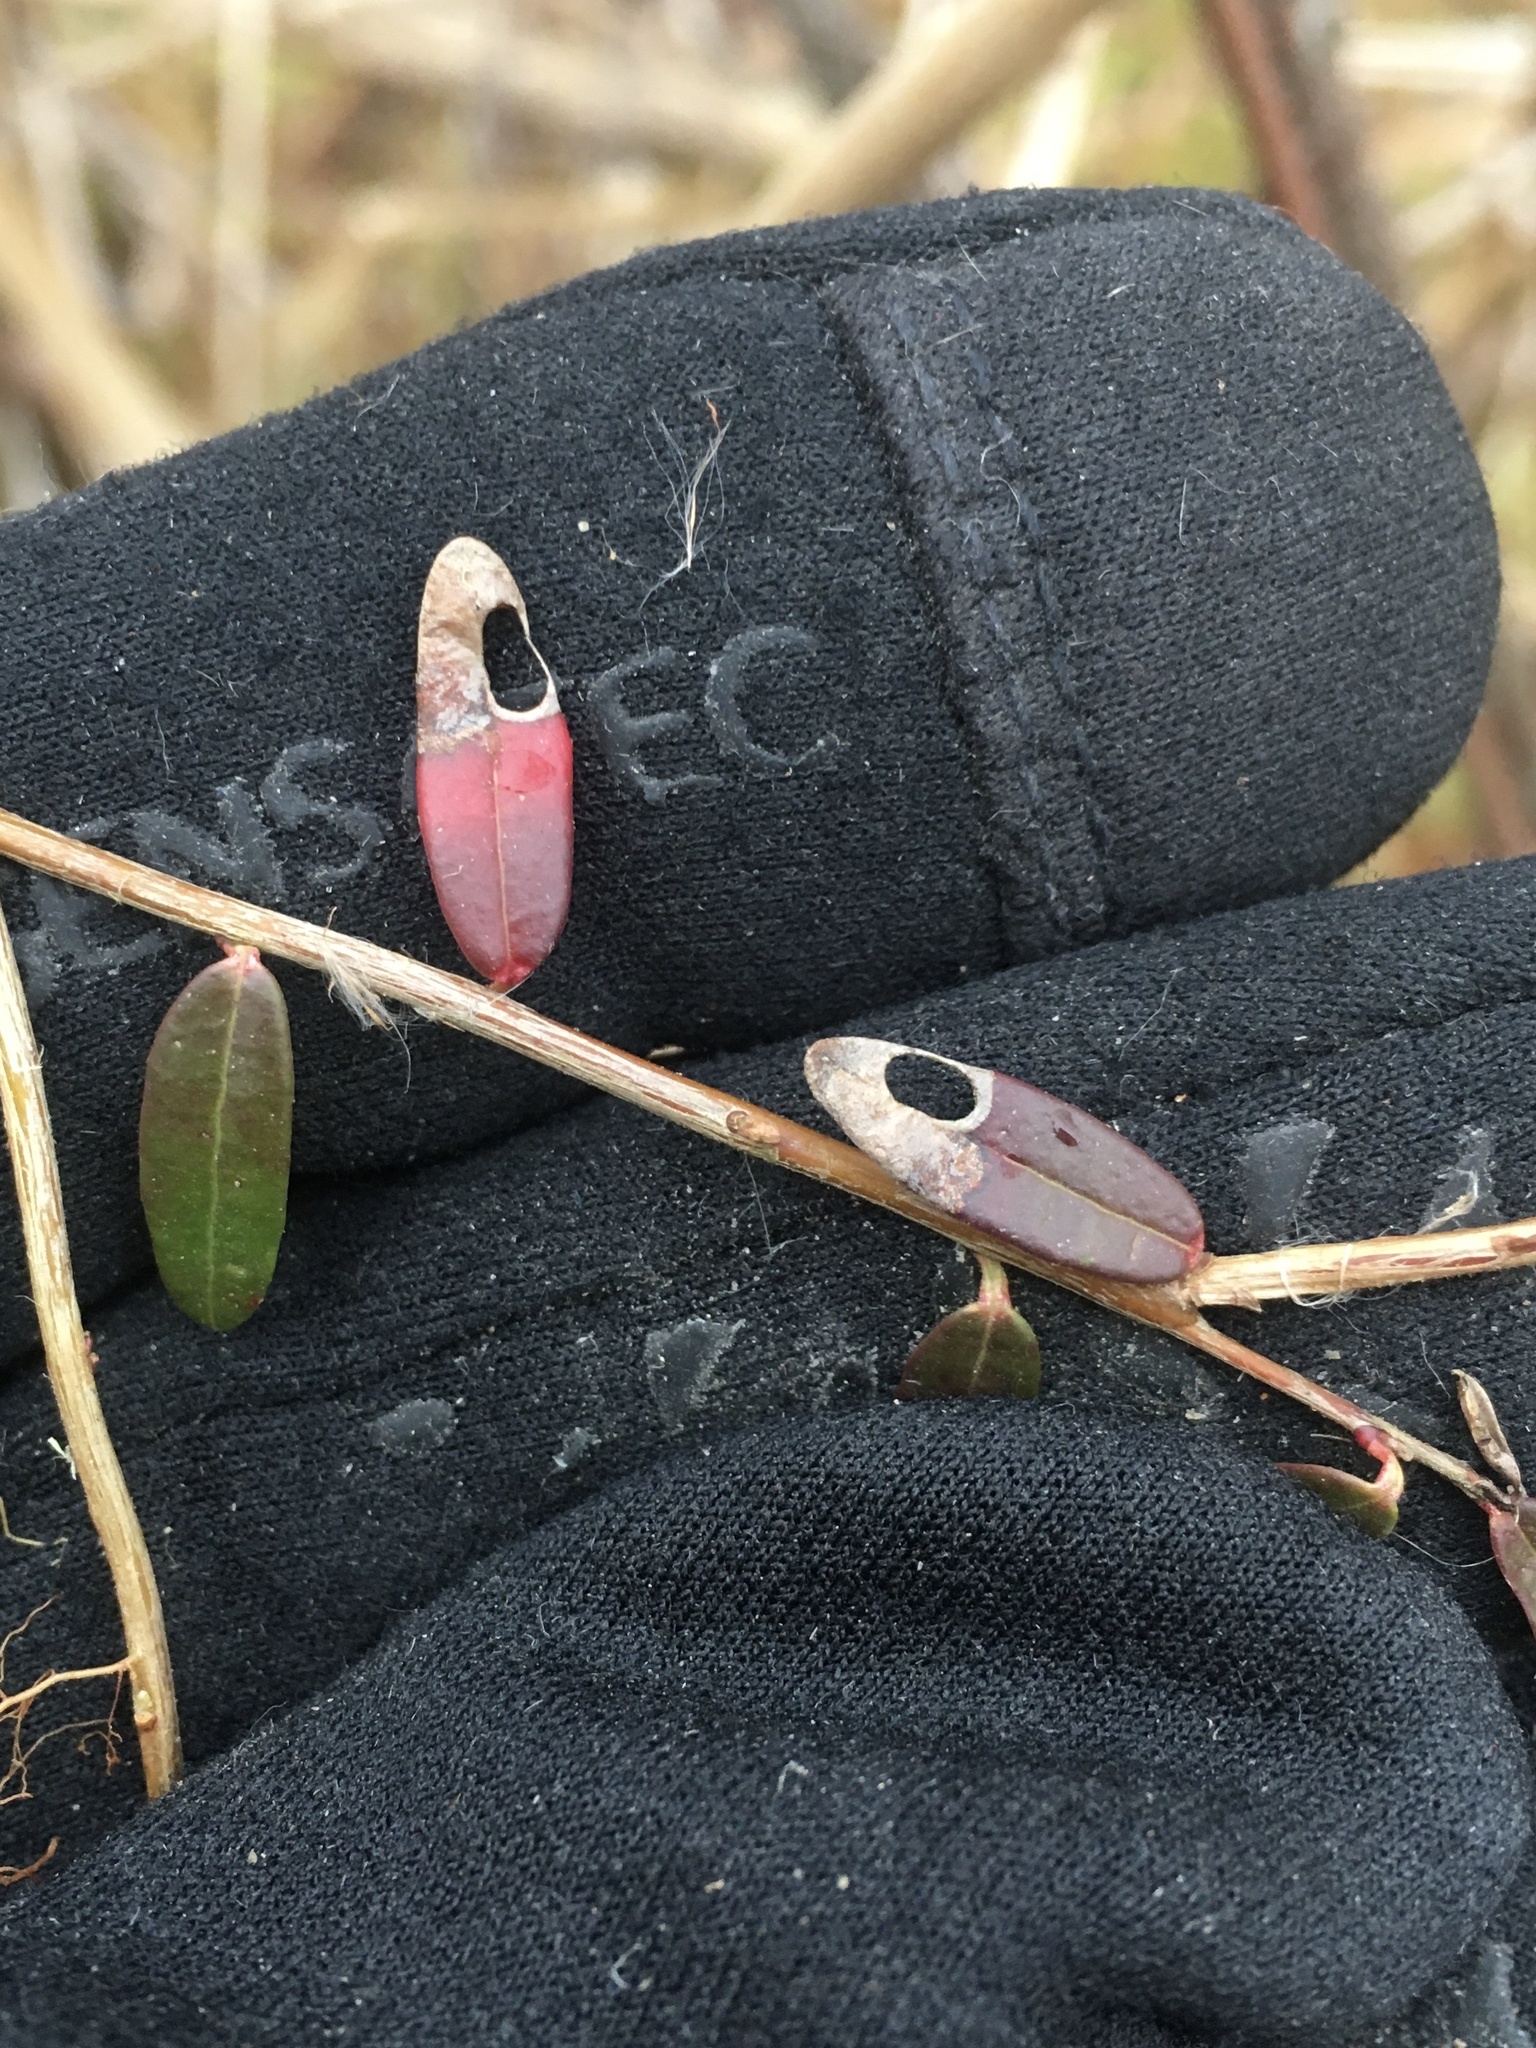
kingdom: Animalia
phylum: Arthropoda
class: Insecta
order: Lepidoptera
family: Heliozelidae
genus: Coptodisca
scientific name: Coptodisca negligens
